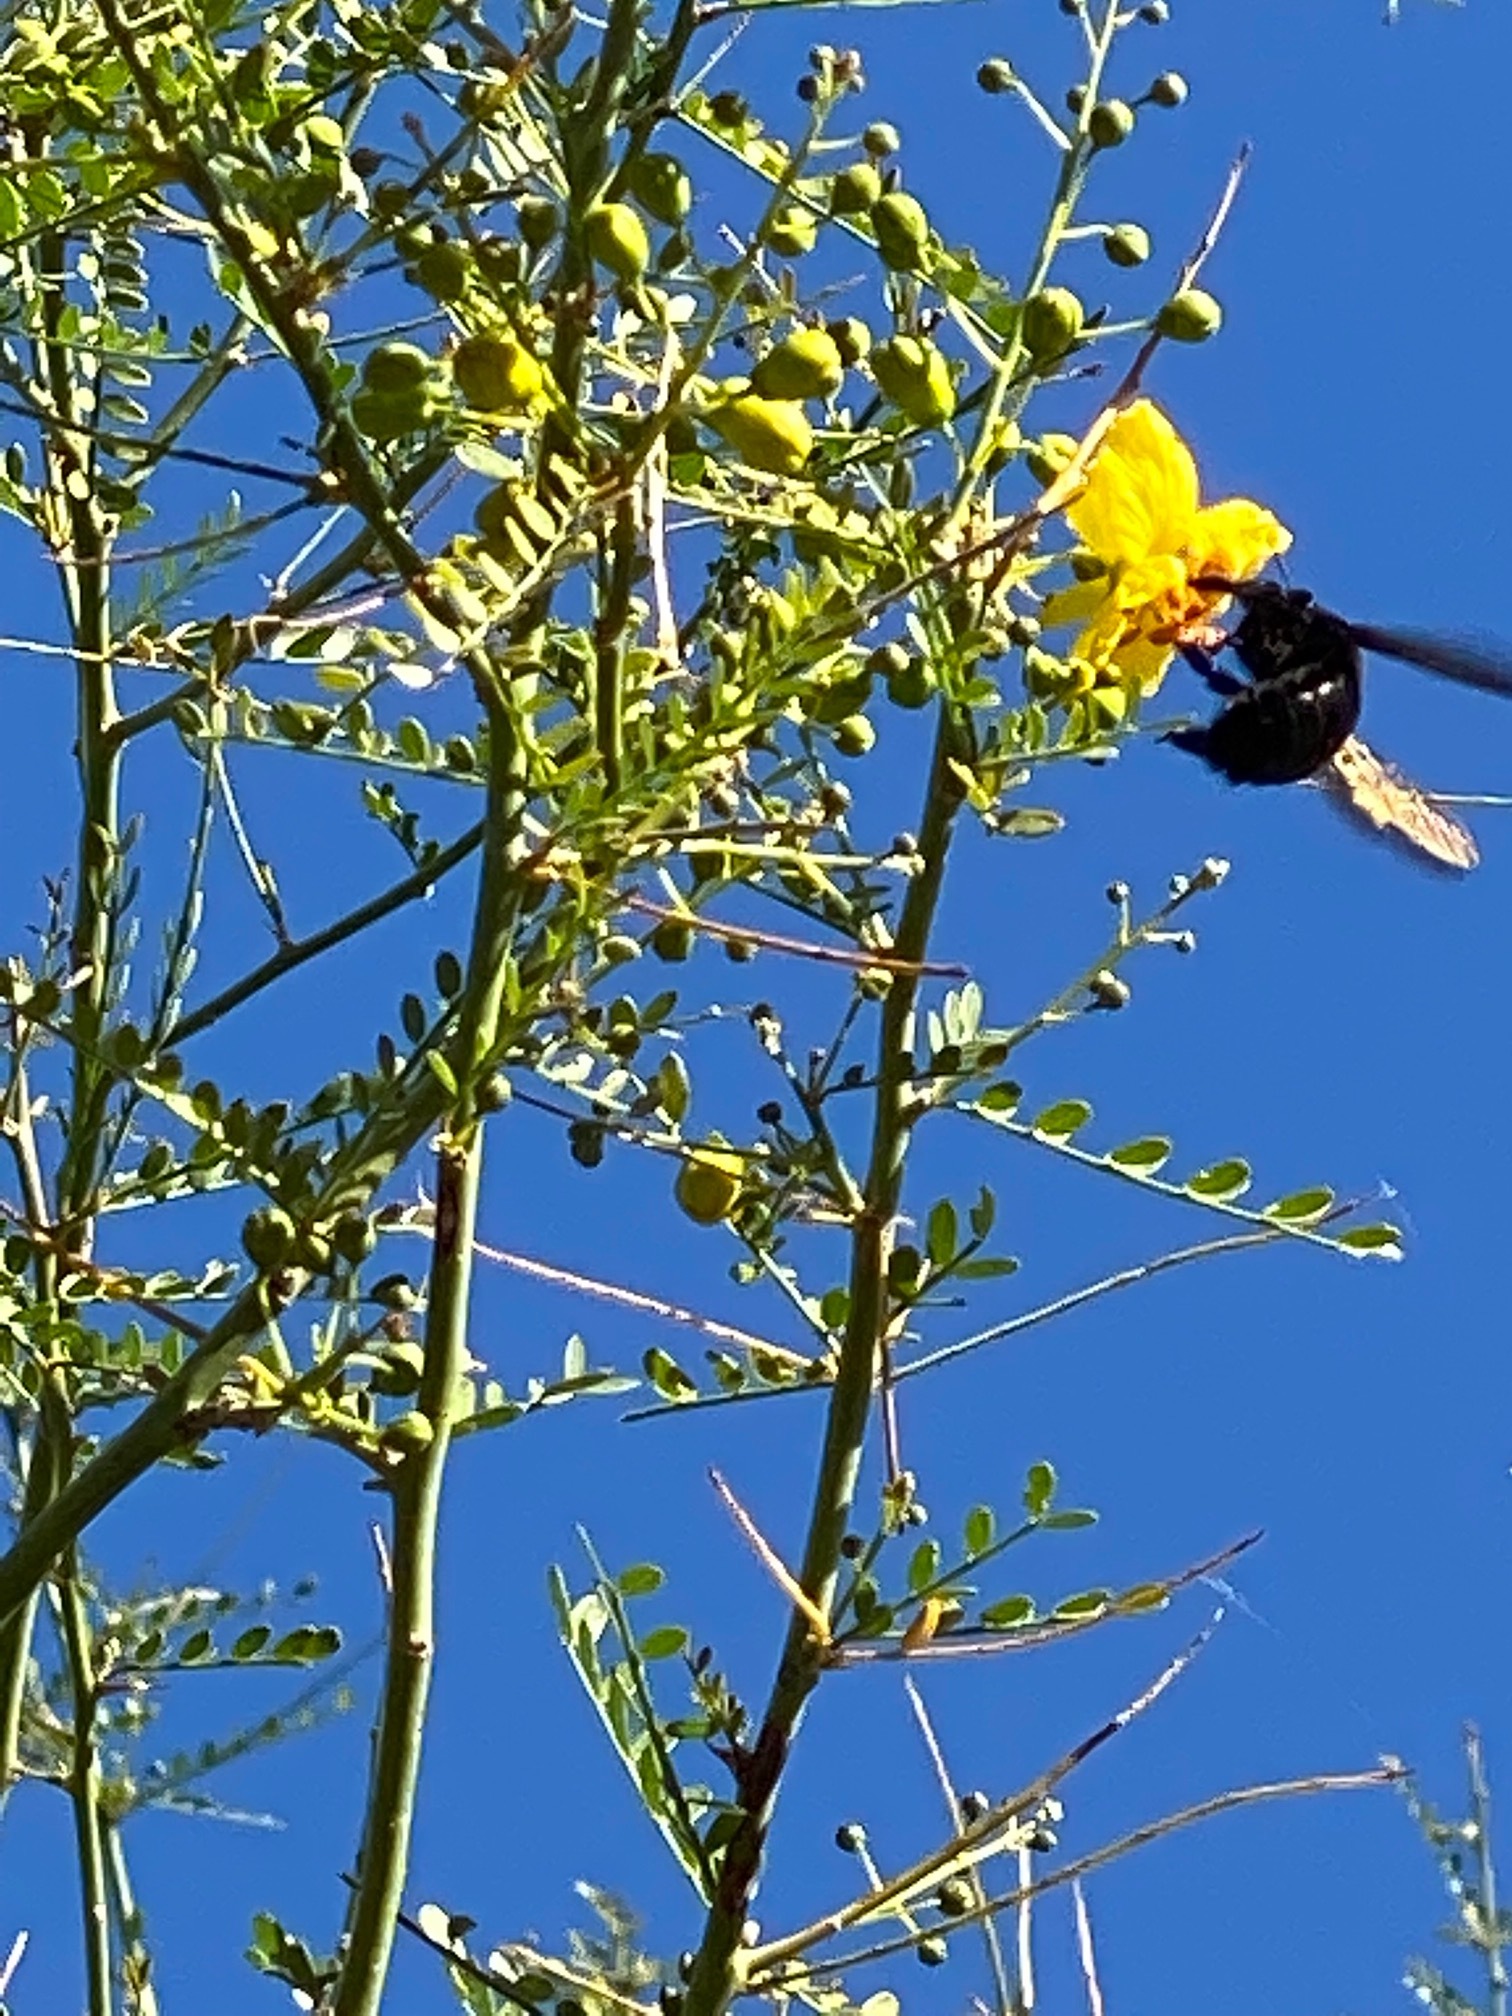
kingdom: Animalia
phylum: Arthropoda
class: Insecta
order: Hymenoptera
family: Apidae
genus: Xylocopa
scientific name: Xylocopa sonorina
